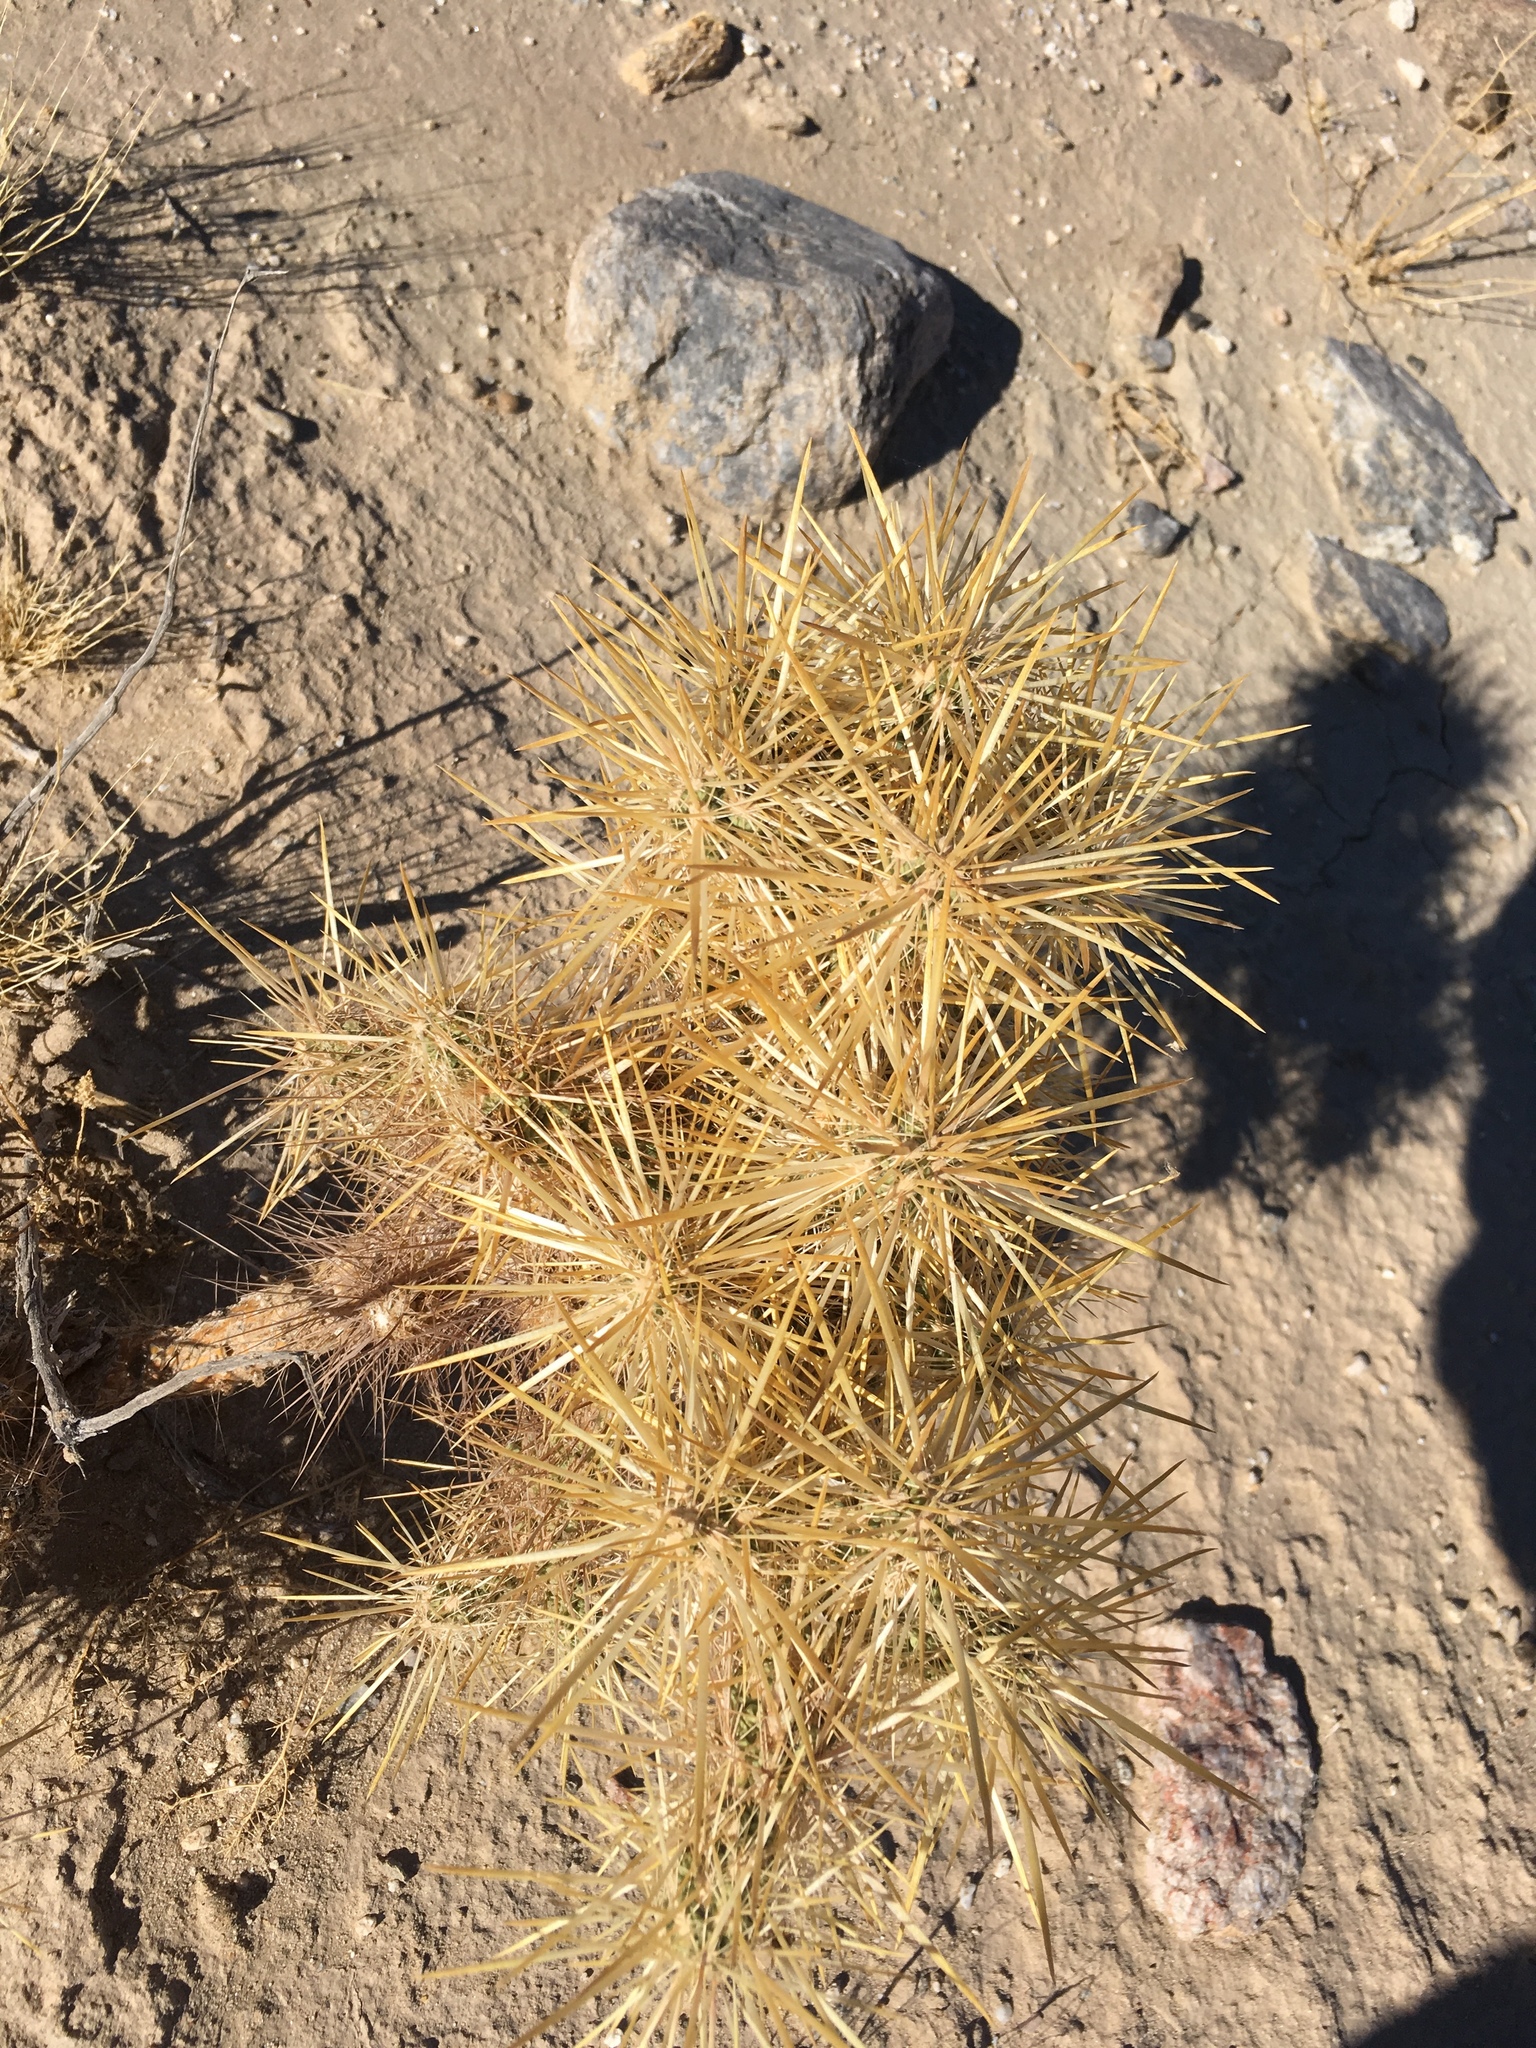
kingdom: Plantae
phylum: Tracheophyta
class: Magnoliopsida
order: Caryophyllales
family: Cactaceae
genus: Cylindropuntia
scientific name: Cylindropuntia echinocarpa
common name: Ground cholla
